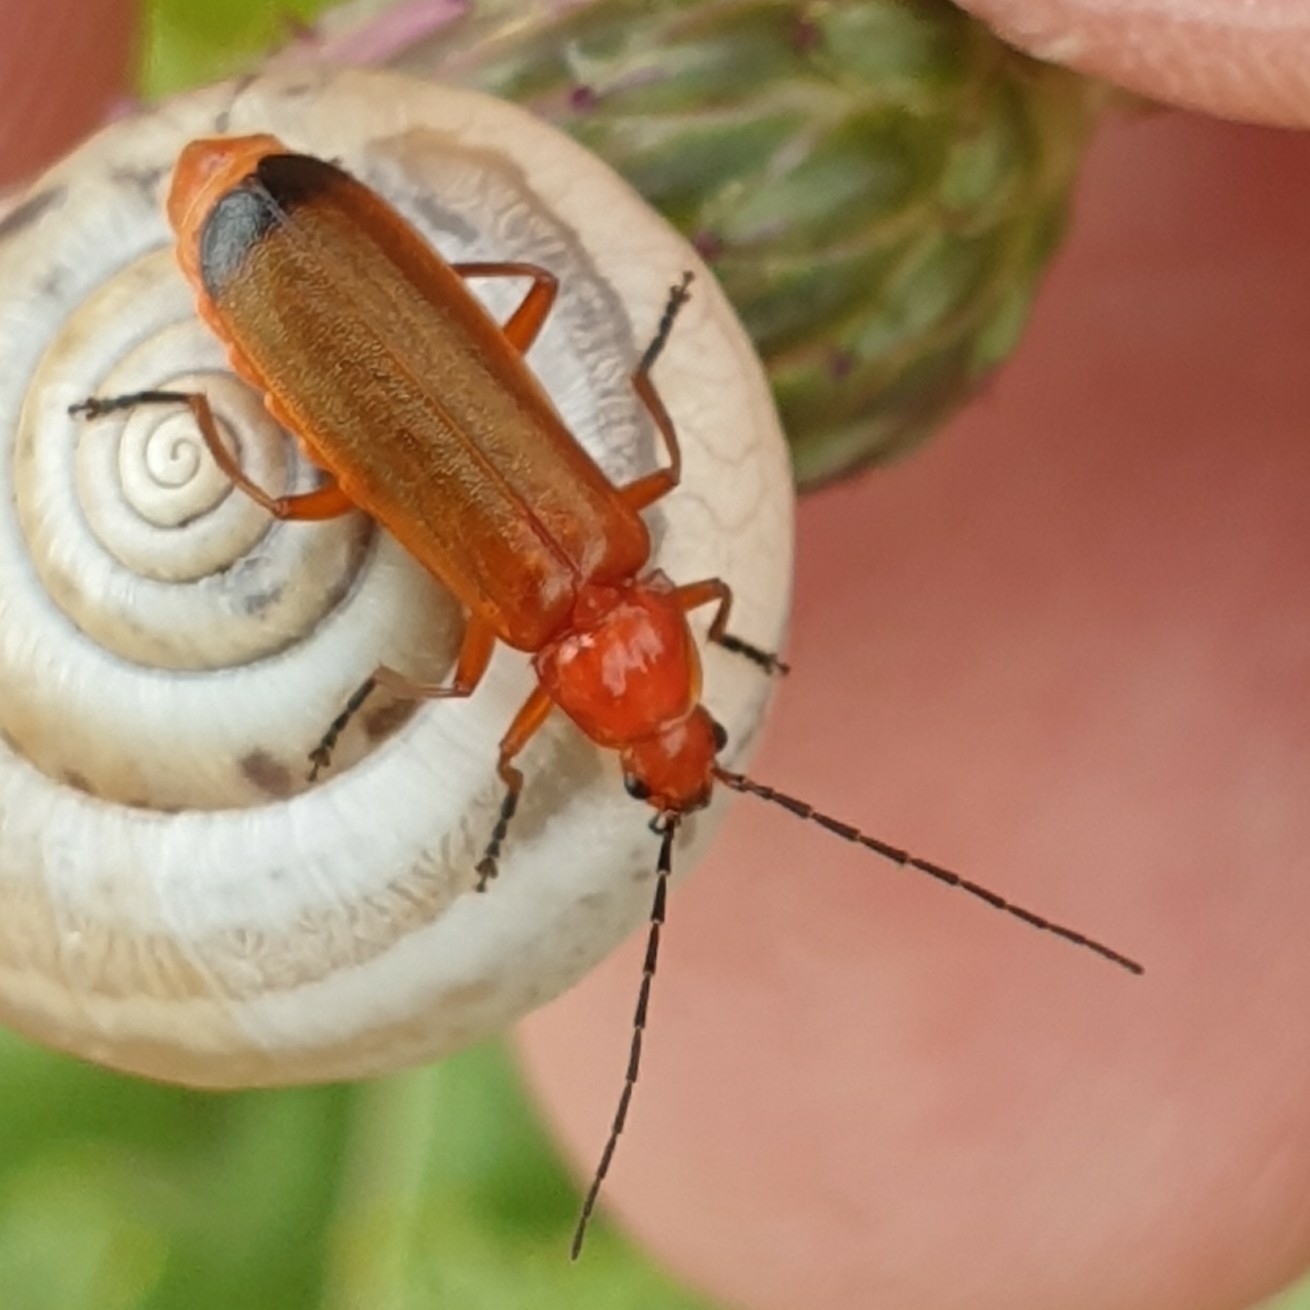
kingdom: Animalia
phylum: Arthropoda
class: Insecta
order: Coleoptera
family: Cantharidae
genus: Rhagonycha
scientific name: Rhagonycha fulva
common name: Common red soldier beetle
